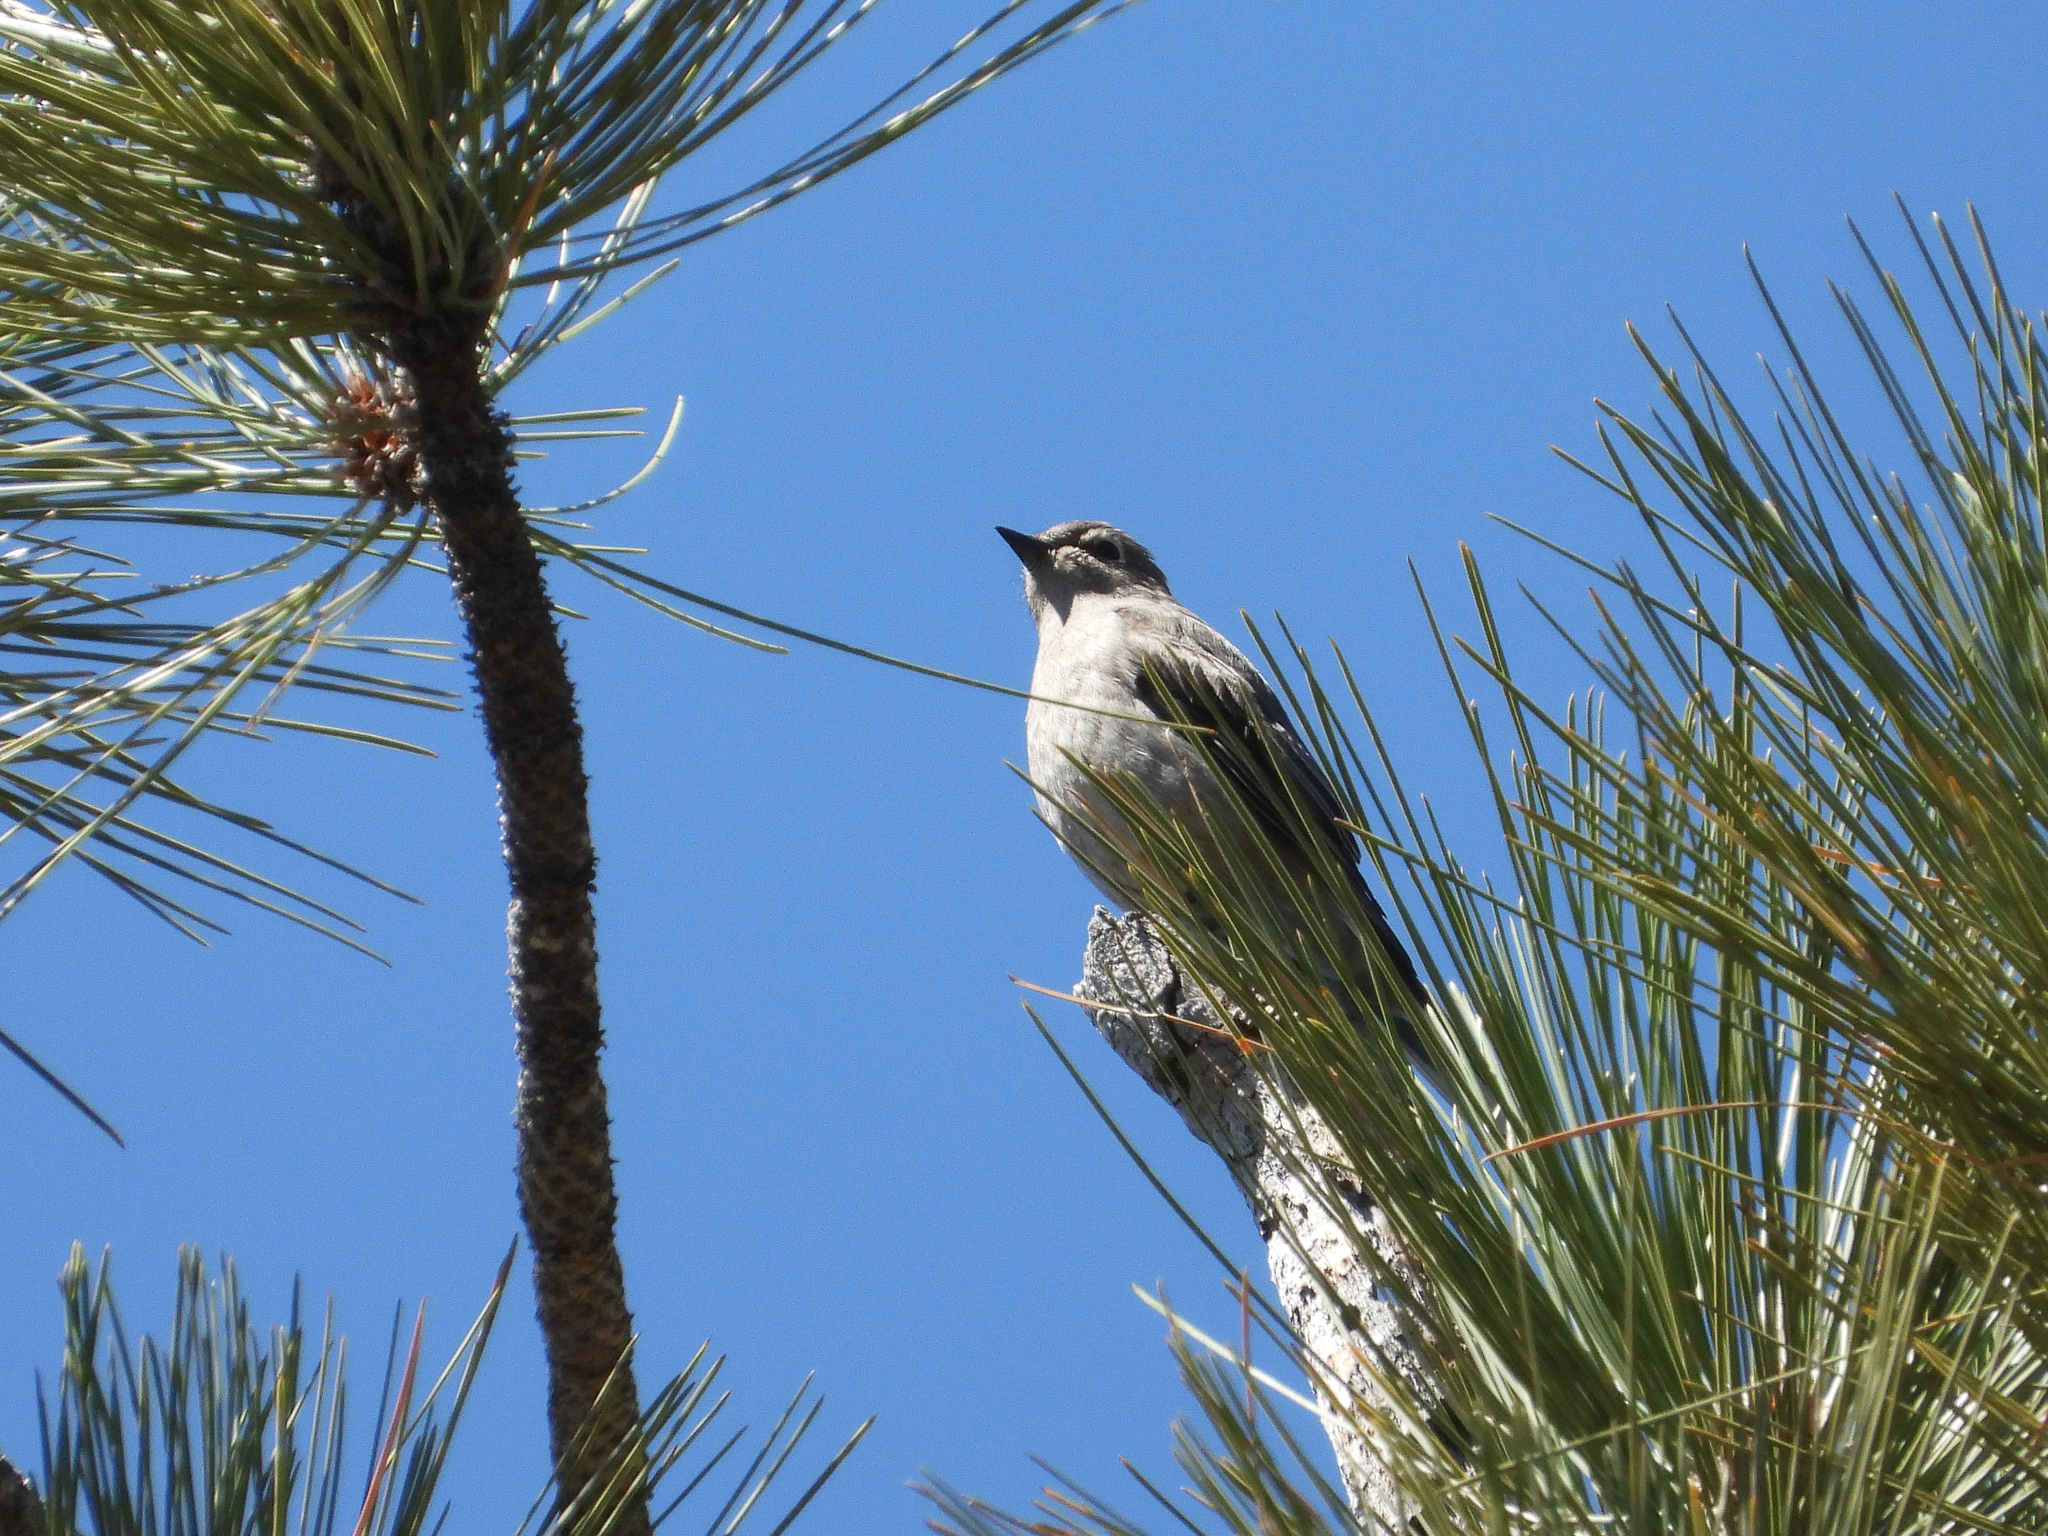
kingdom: Animalia
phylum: Chordata
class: Aves
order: Passeriformes
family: Turdidae
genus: Myadestes
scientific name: Myadestes townsendi
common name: Townsend's solitaire
